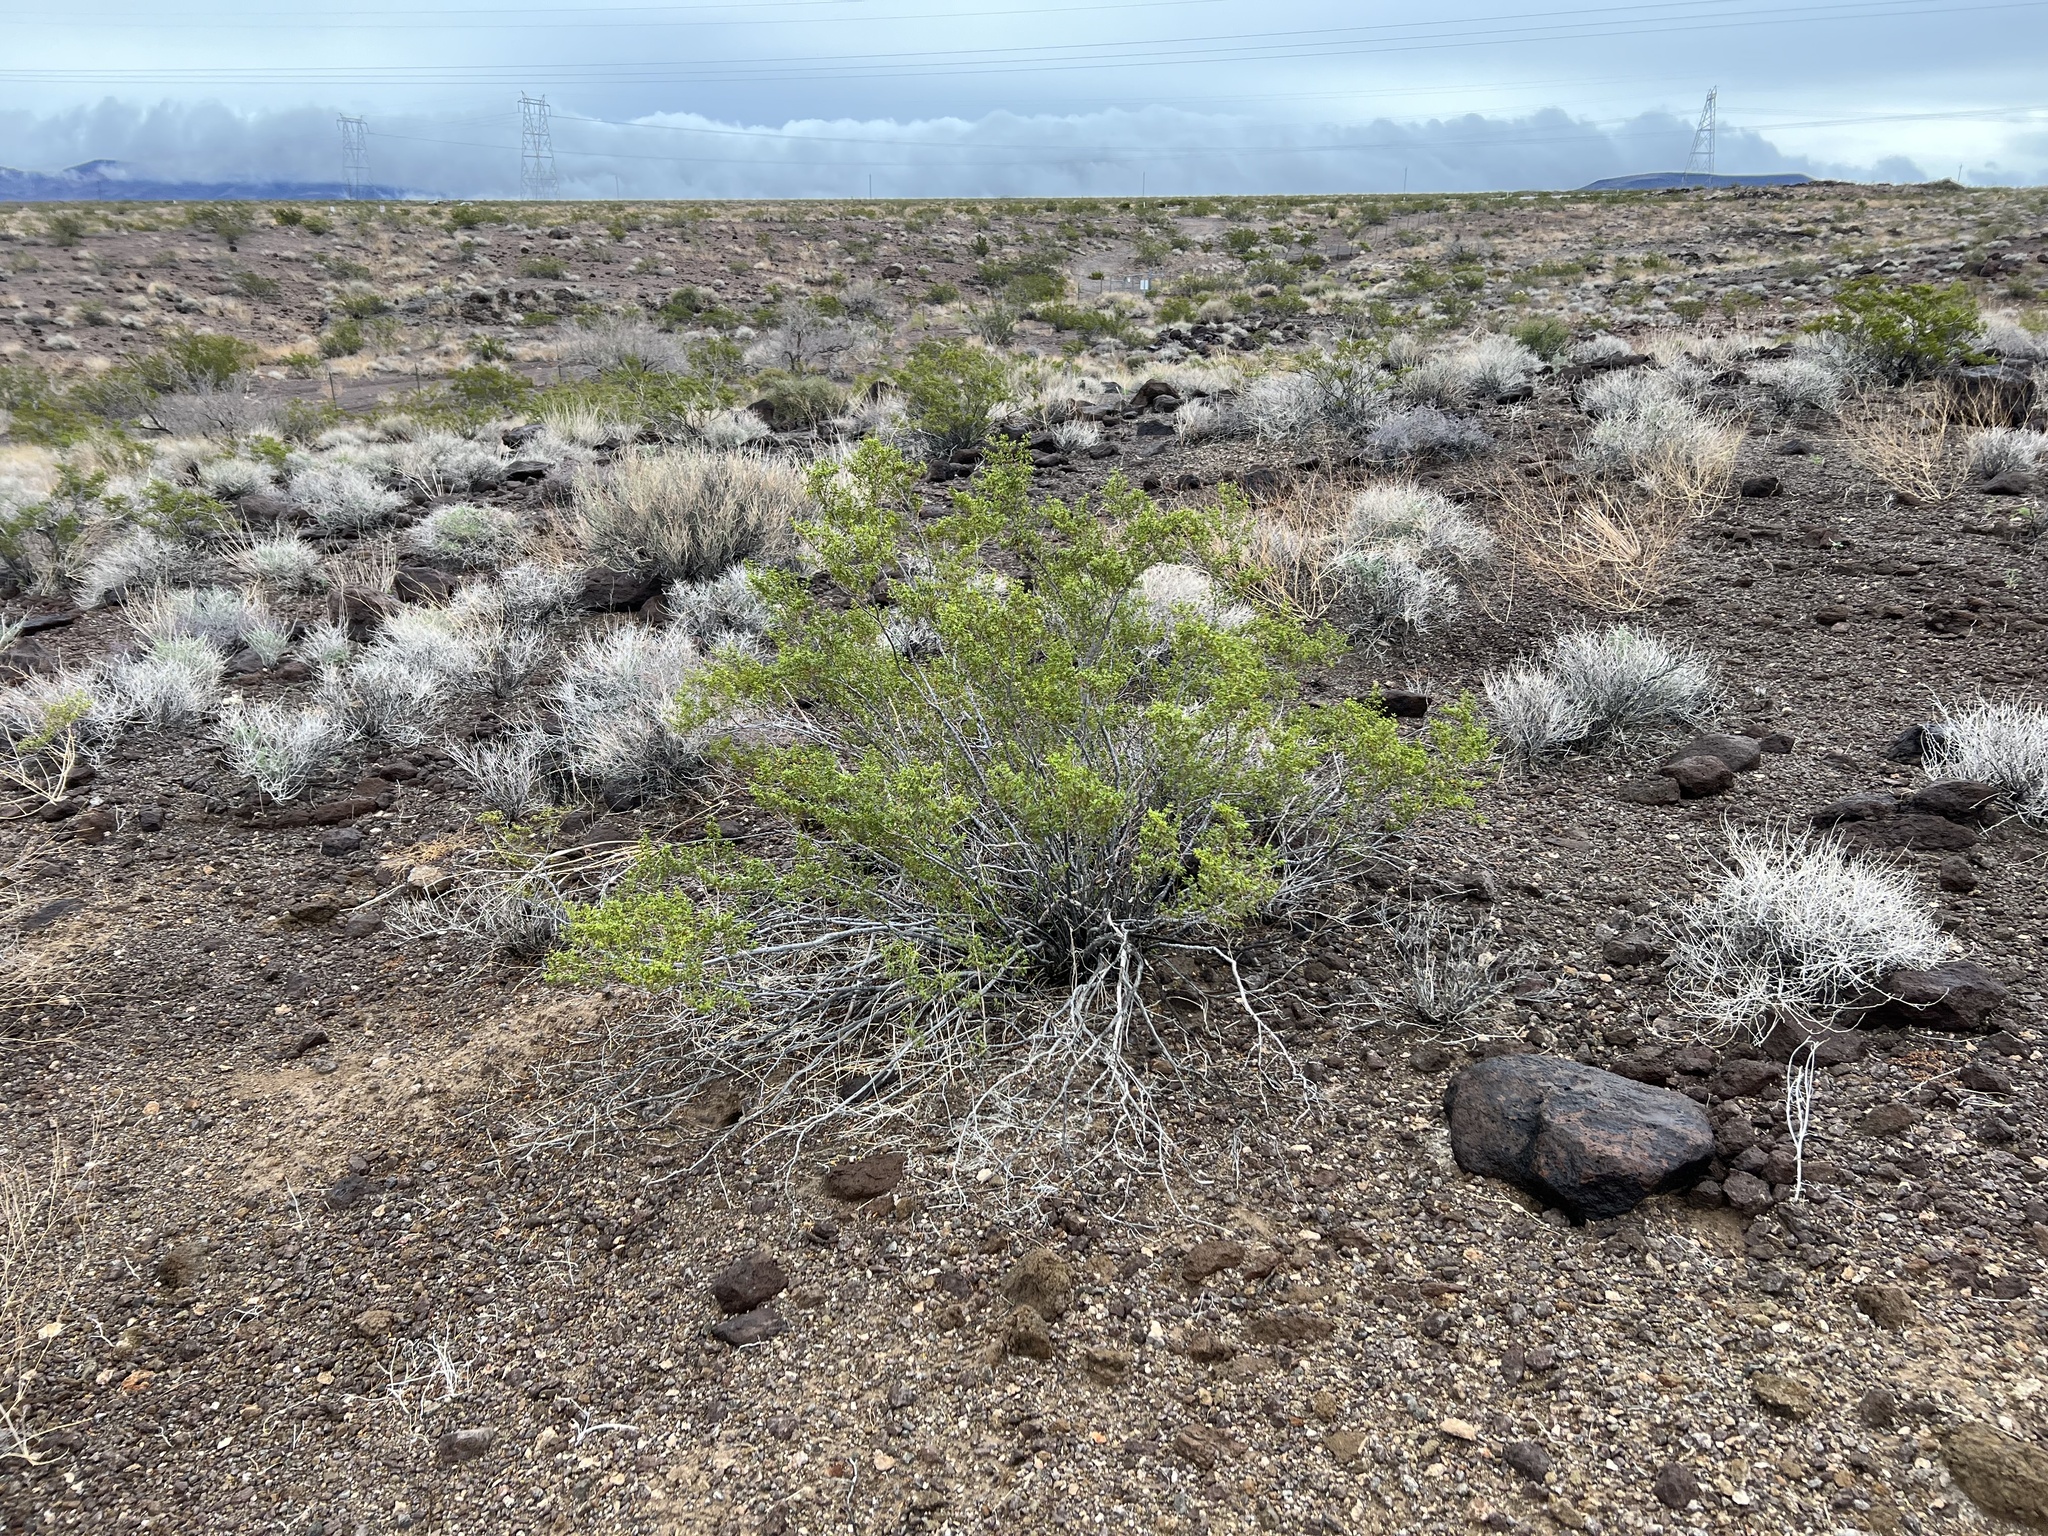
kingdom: Plantae
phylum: Tracheophyta
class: Magnoliopsida
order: Zygophyllales
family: Zygophyllaceae
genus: Larrea
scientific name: Larrea tridentata
